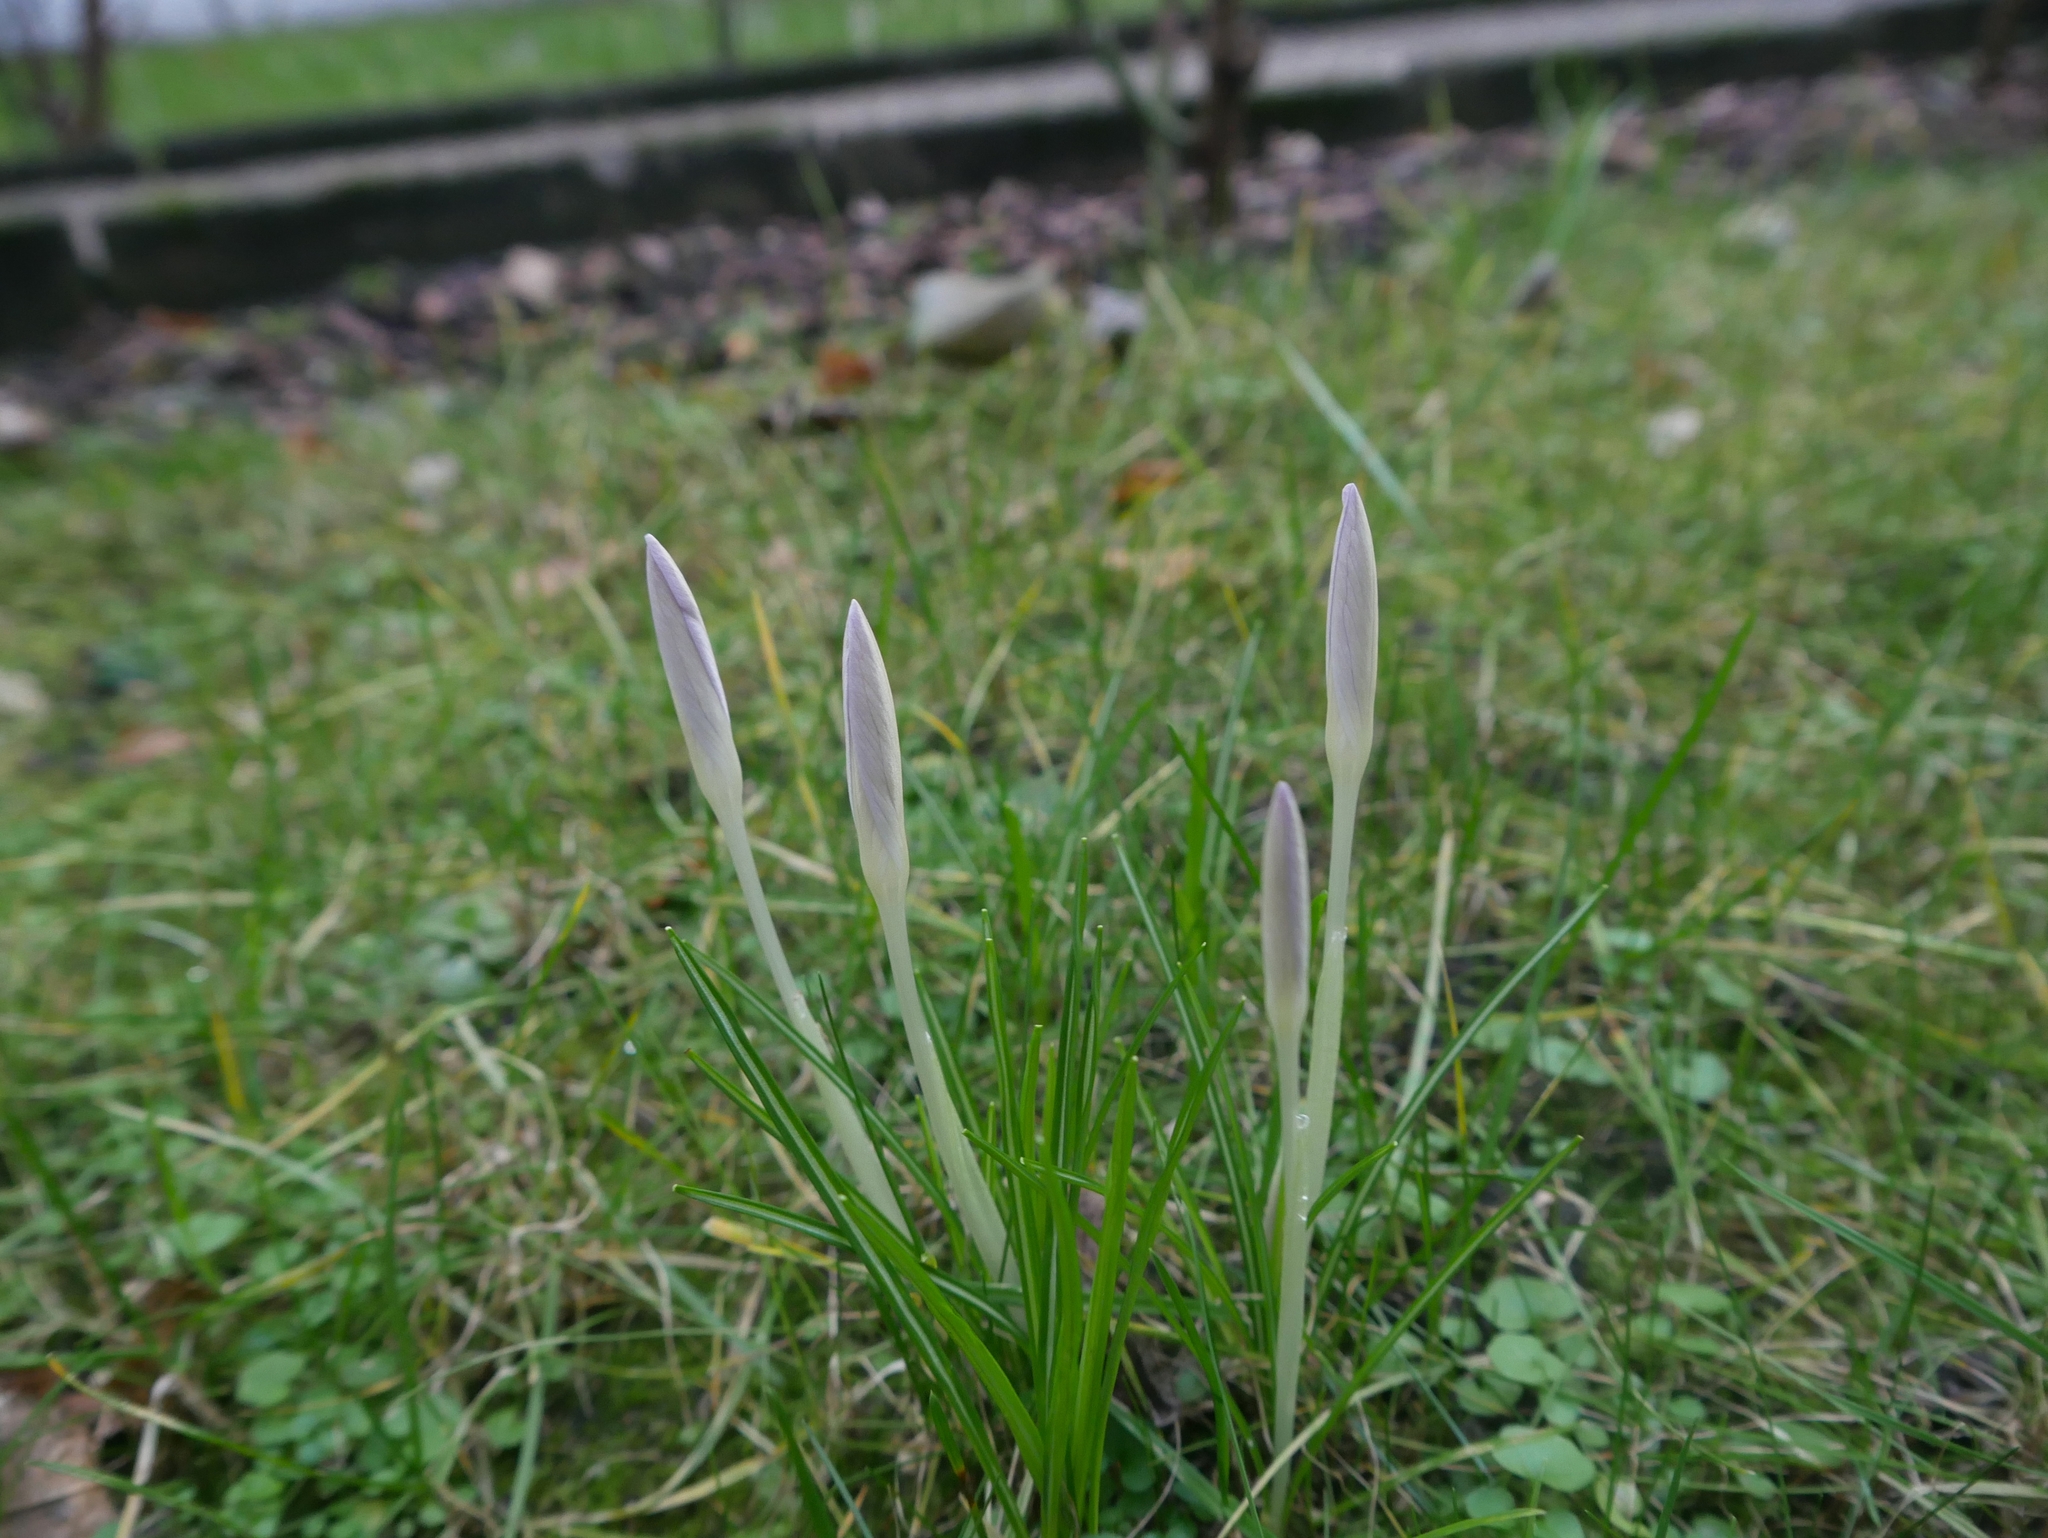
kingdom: Plantae
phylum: Tracheophyta
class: Liliopsida
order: Asparagales
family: Iridaceae
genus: Crocus
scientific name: Crocus tommasinianus
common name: Early crocus
